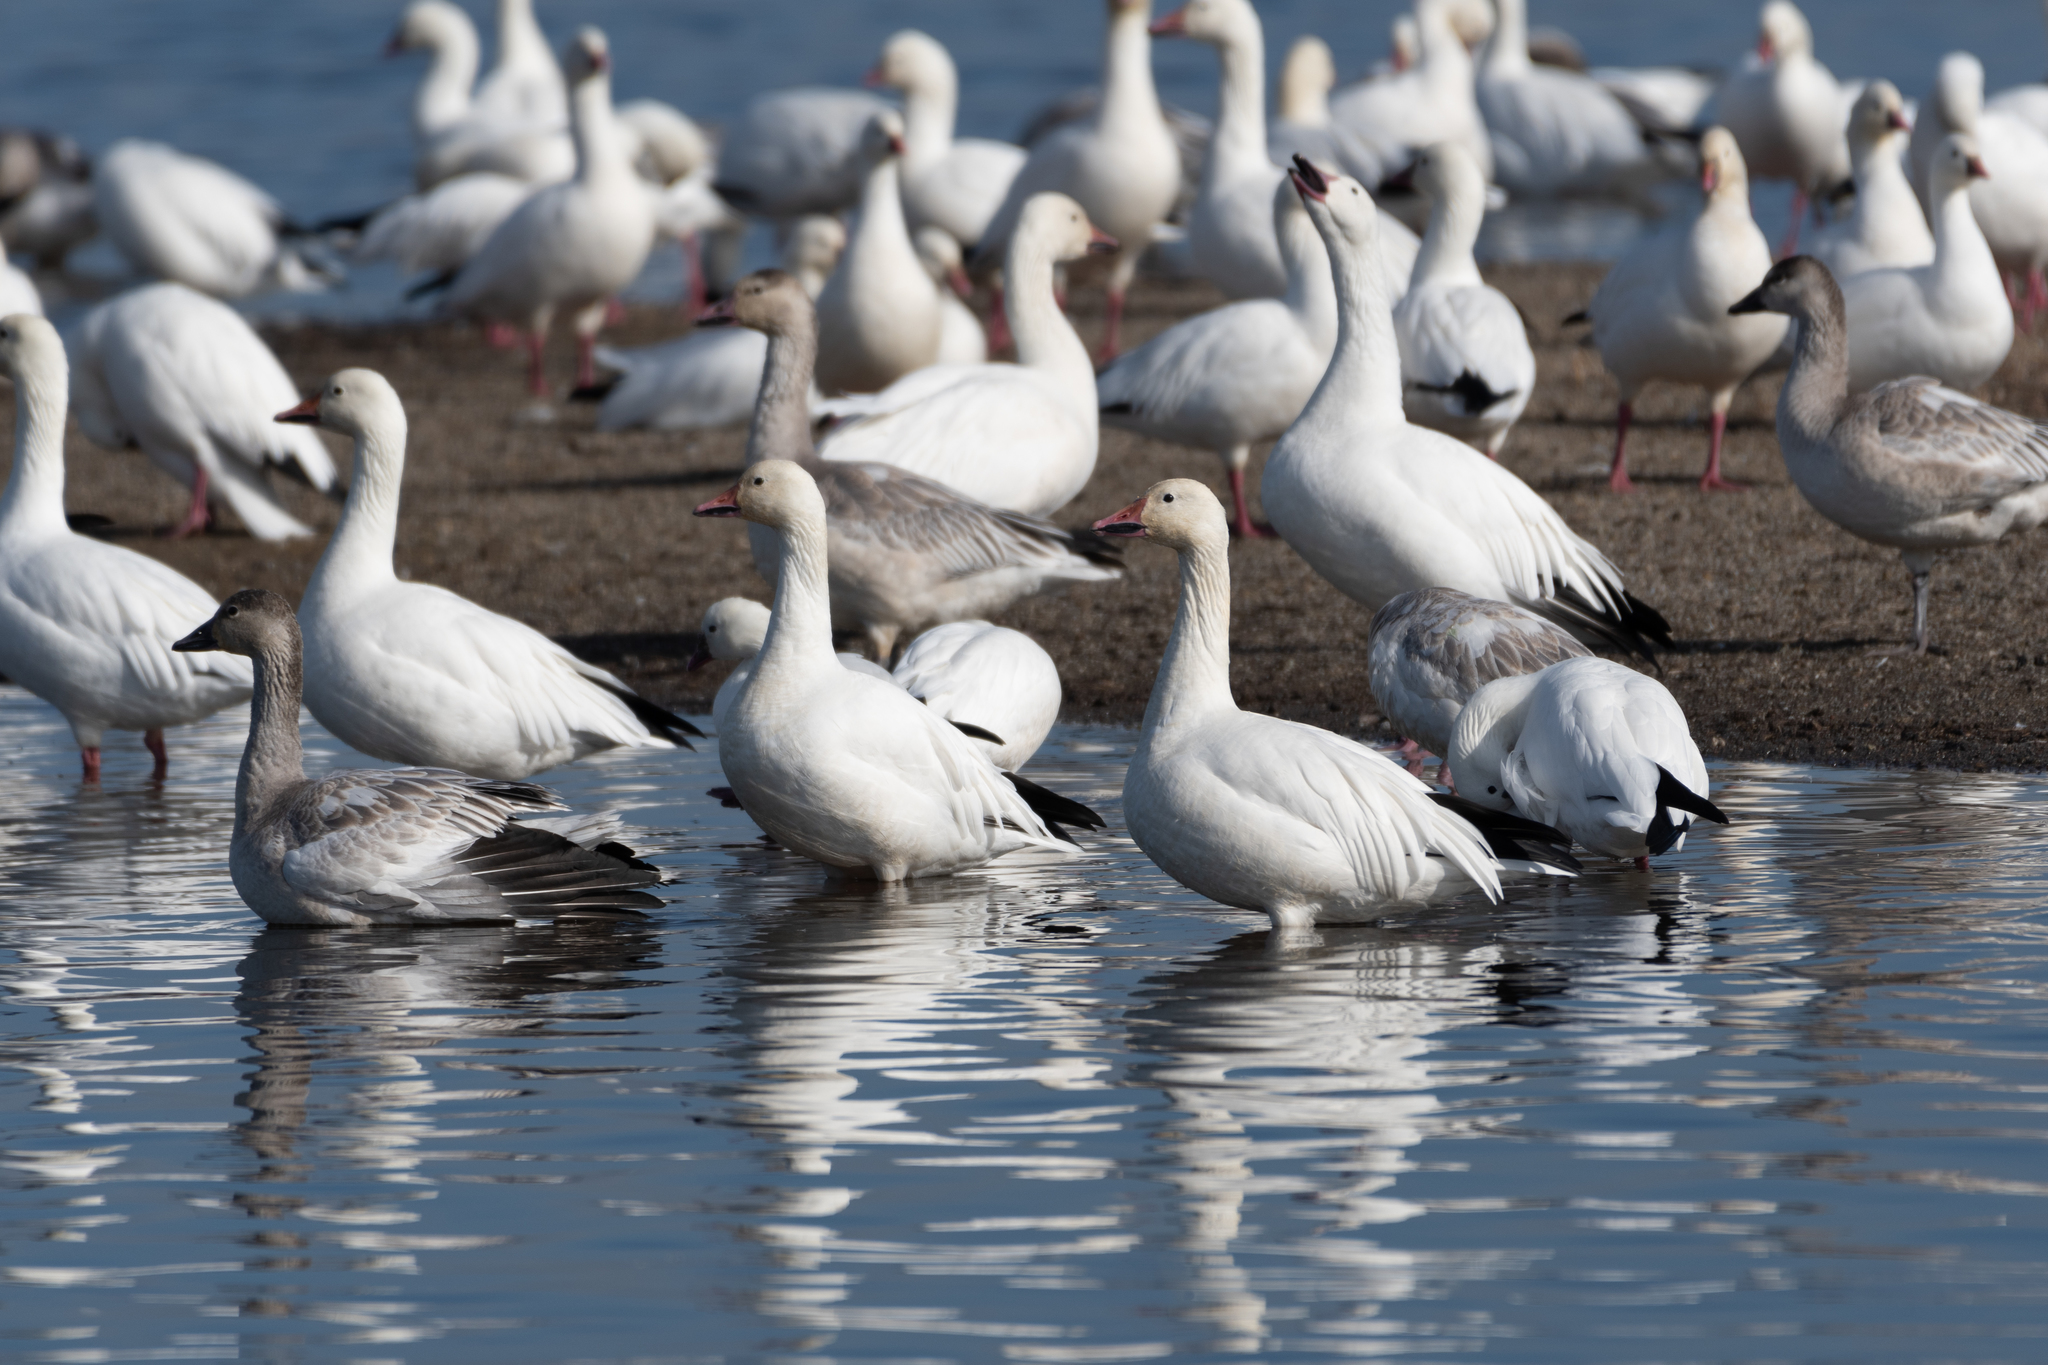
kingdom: Animalia
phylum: Chordata
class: Aves
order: Anseriformes
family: Anatidae
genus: Anser
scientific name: Anser caerulescens
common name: Snow goose
